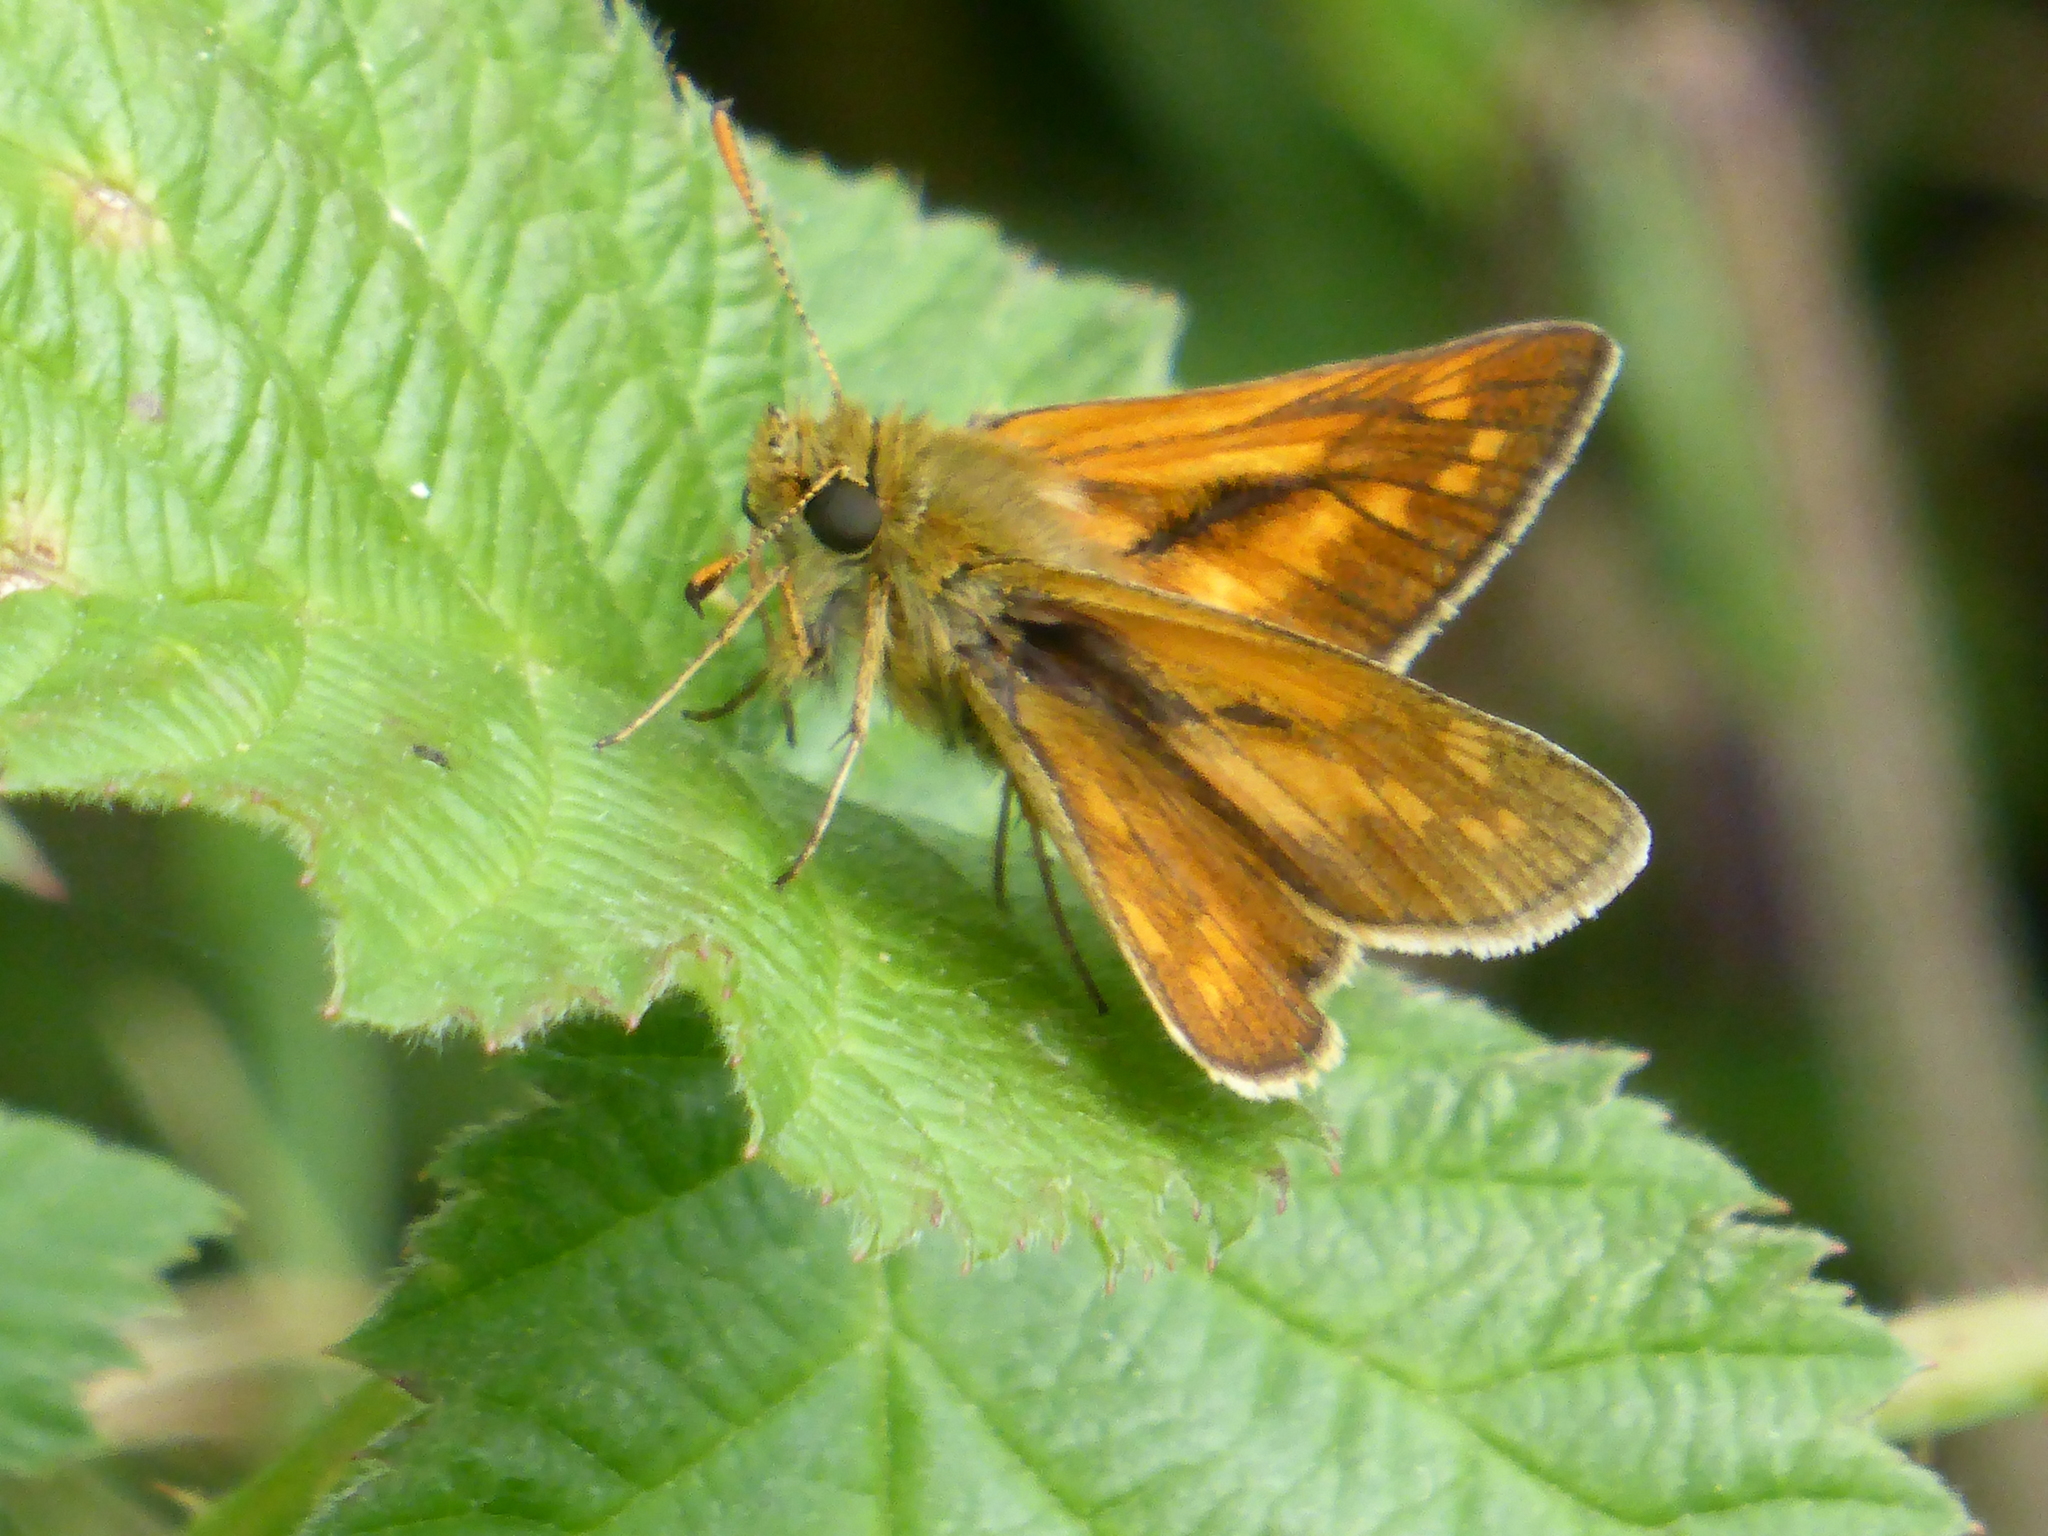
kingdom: Animalia
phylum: Arthropoda
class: Insecta
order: Lepidoptera
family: Hesperiidae
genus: Ochlodes
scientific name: Ochlodes venata
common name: Large skipper
